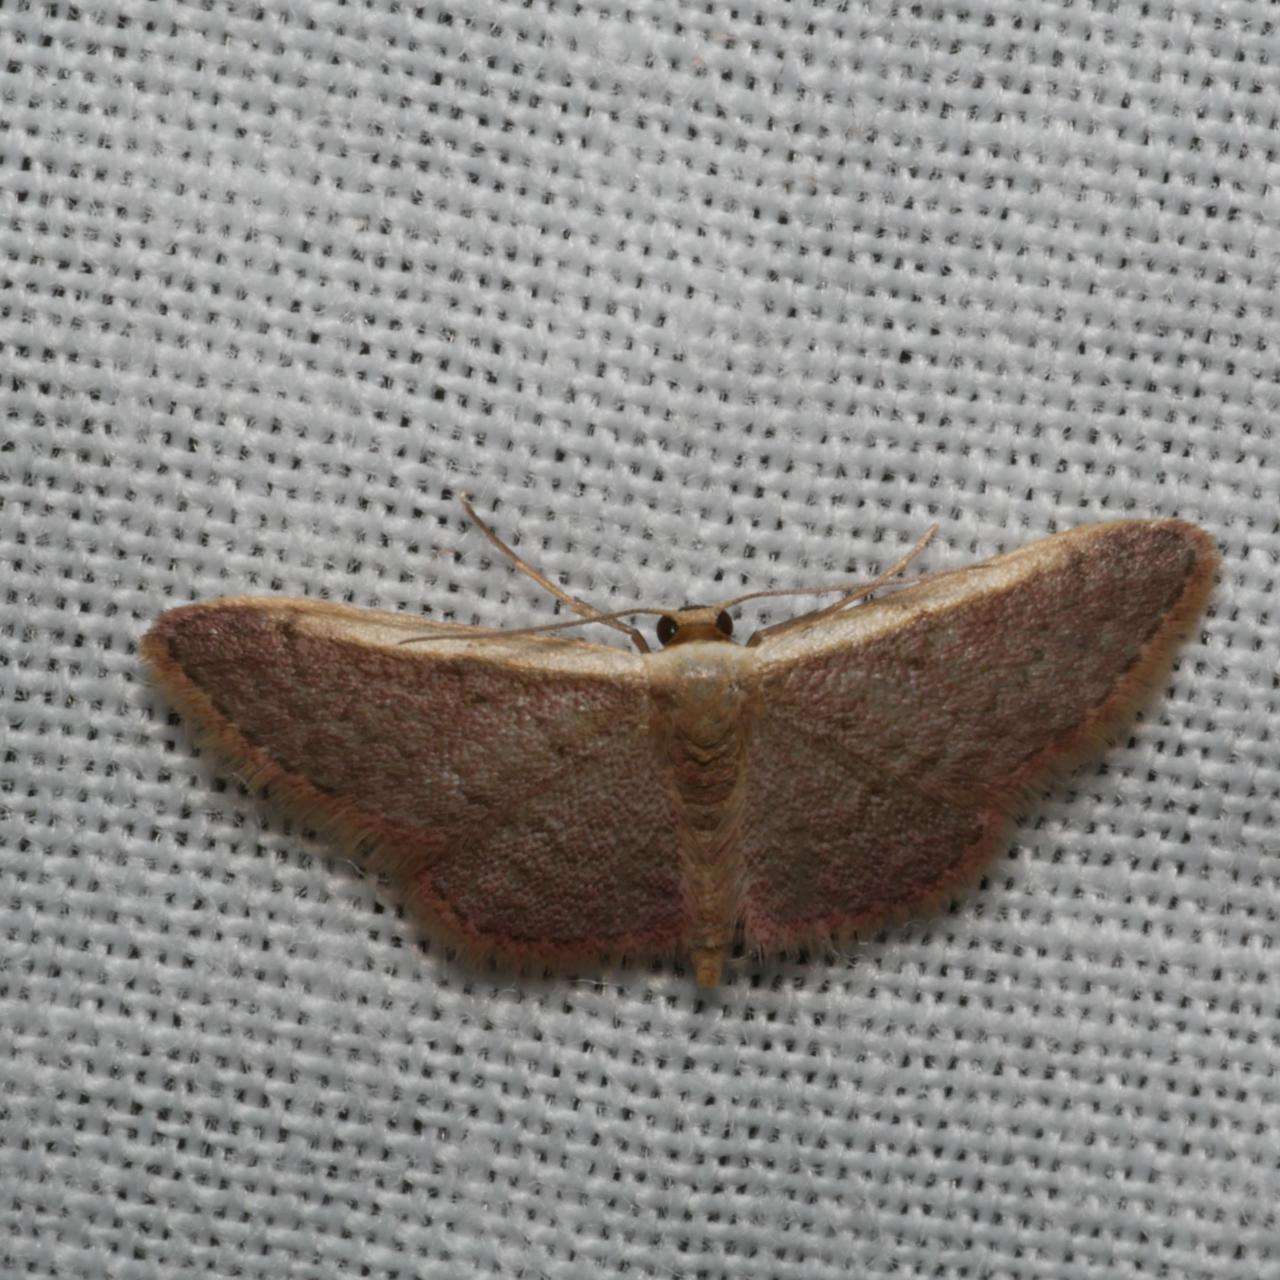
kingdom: Animalia
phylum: Arthropoda
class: Insecta
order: Lepidoptera
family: Geometridae
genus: Idaea
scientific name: Idaea costaria
